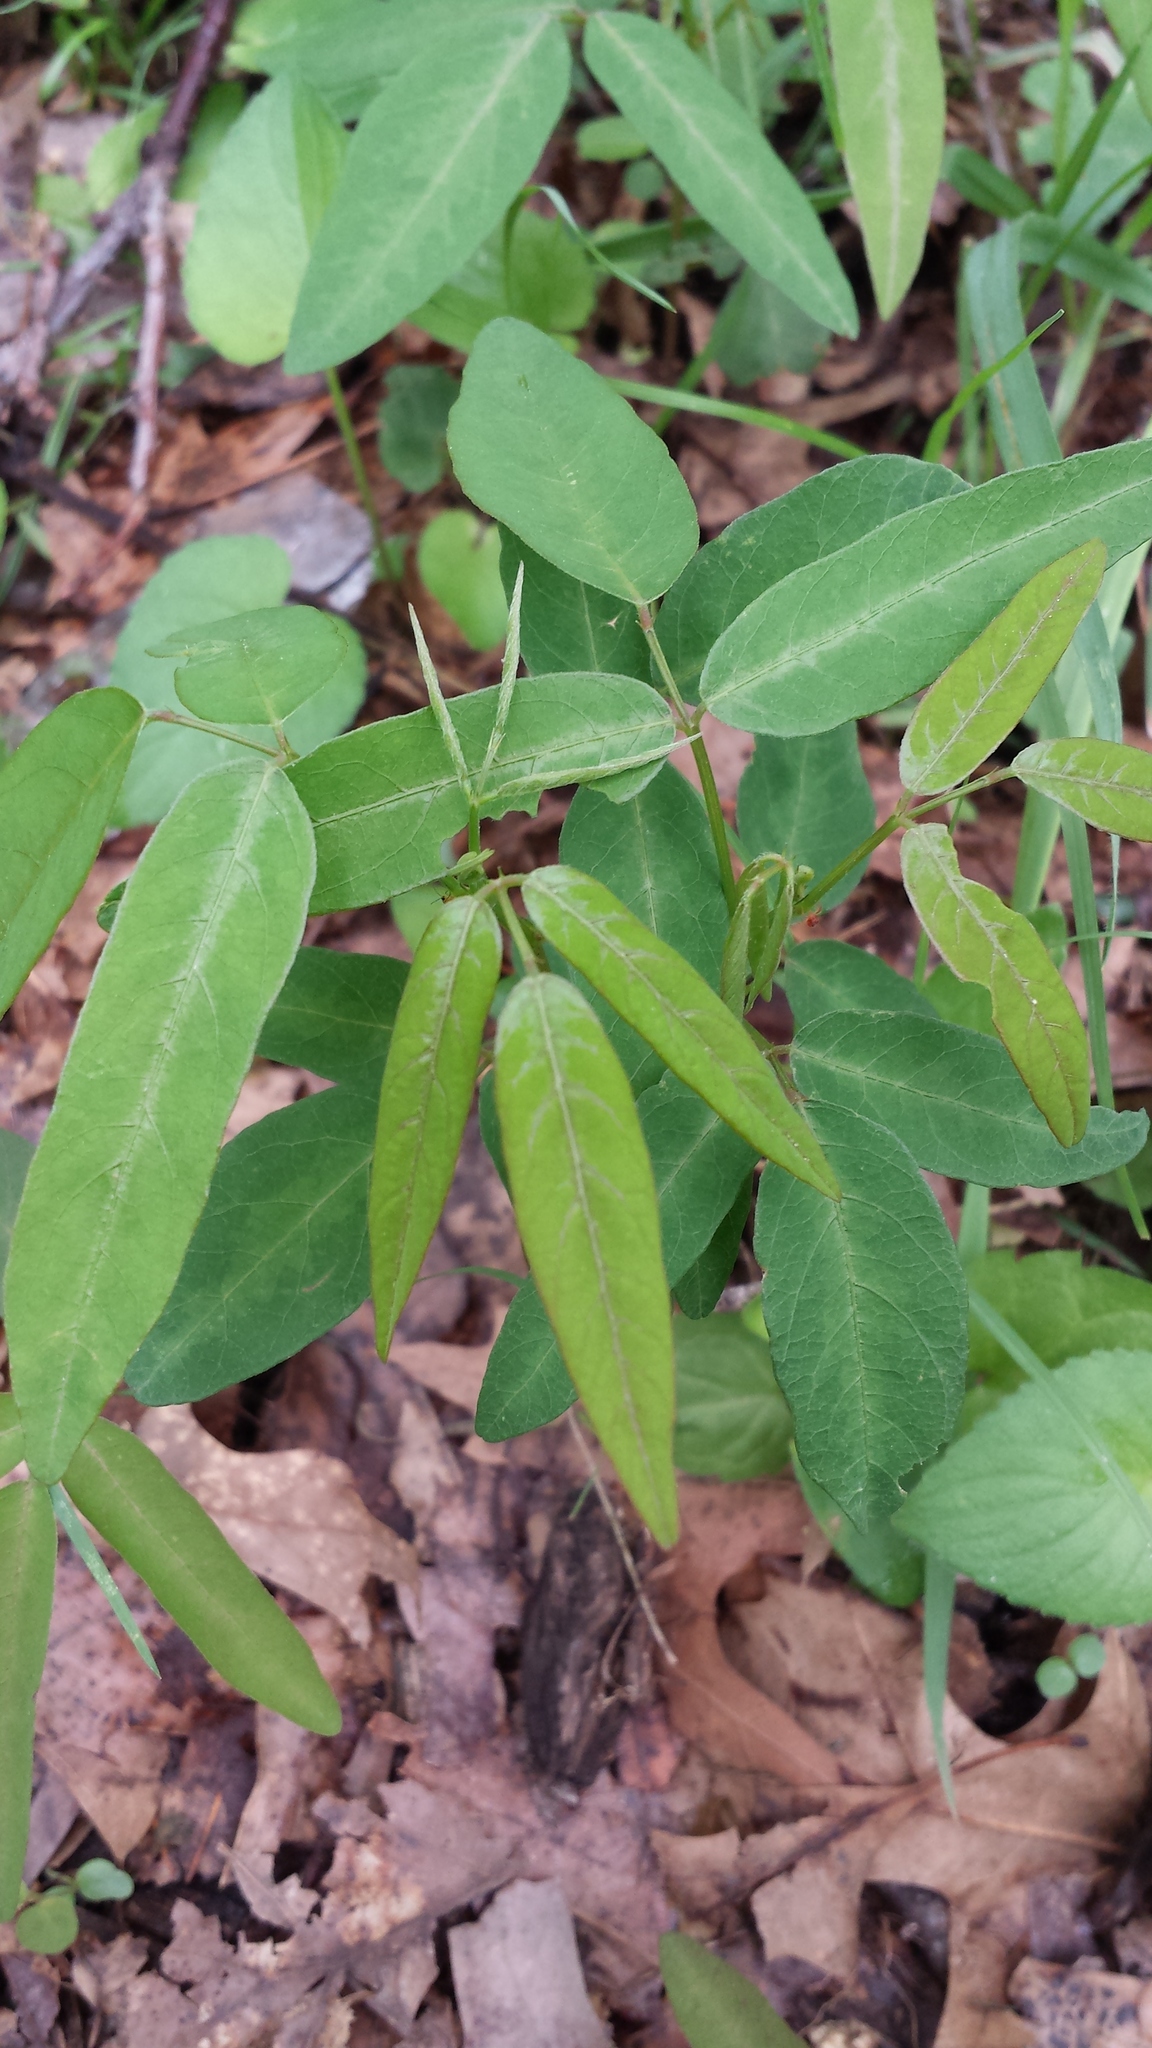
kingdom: Plantae
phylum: Tracheophyta
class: Magnoliopsida
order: Fabales
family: Fabaceae
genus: Desmodium
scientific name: Desmodium paniculatum
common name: Panicled tick-clover
